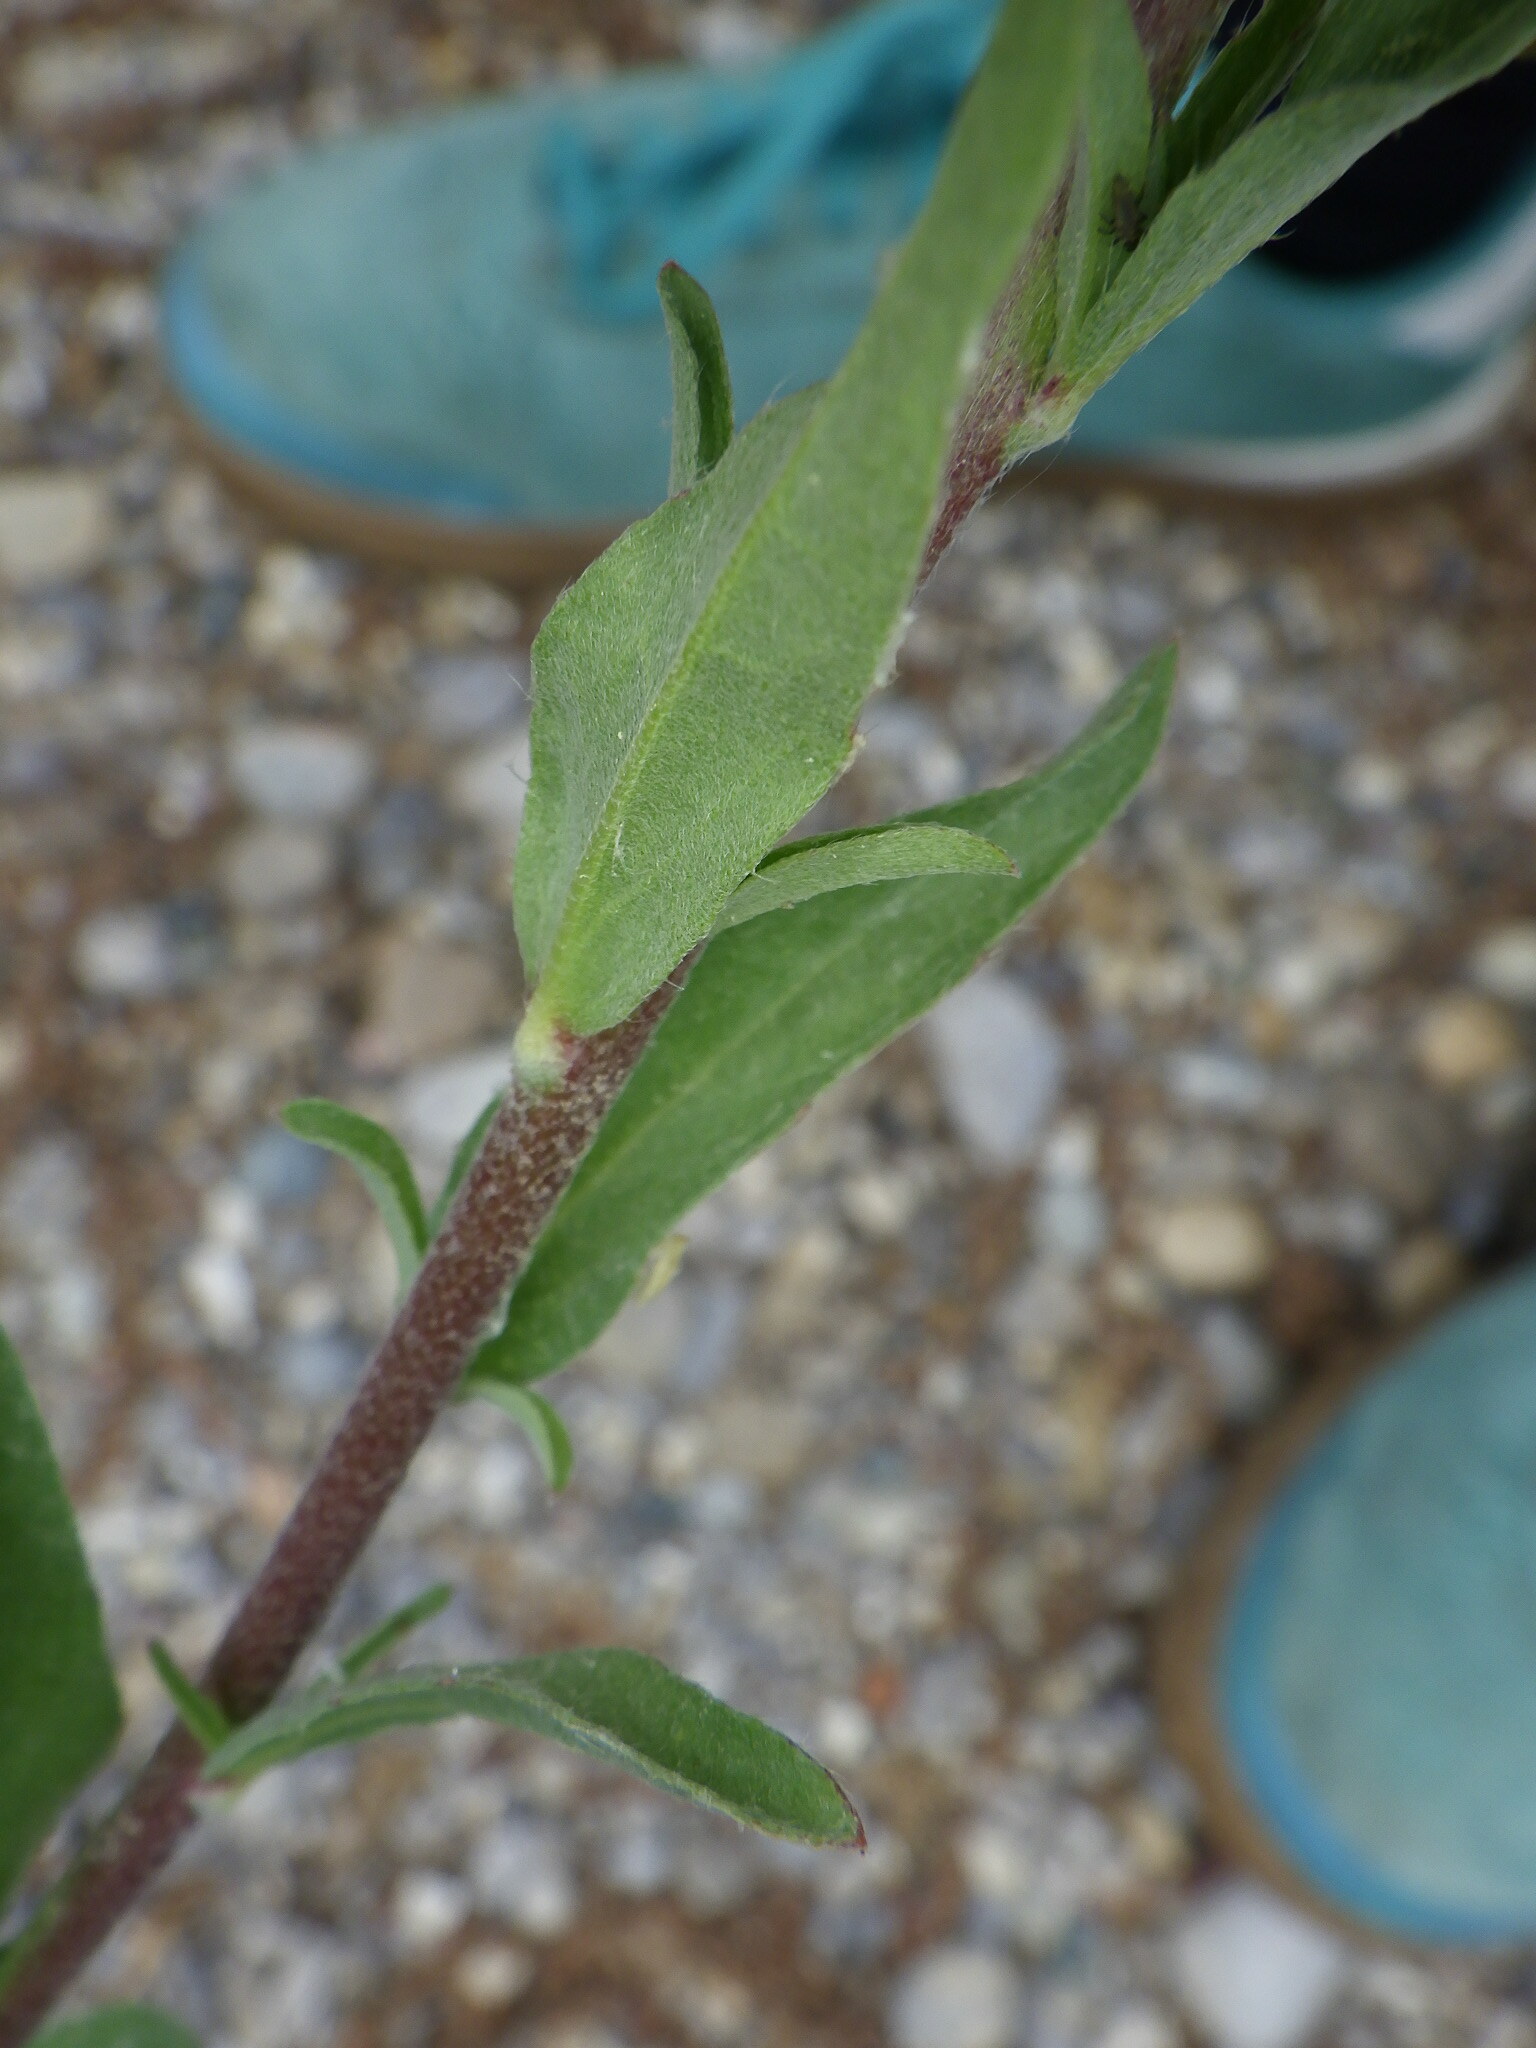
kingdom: Plantae
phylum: Tracheophyta
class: Magnoliopsida
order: Brassicales
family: Brassicaceae
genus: Berteroa
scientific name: Berteroa incana
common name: Hoary alison
